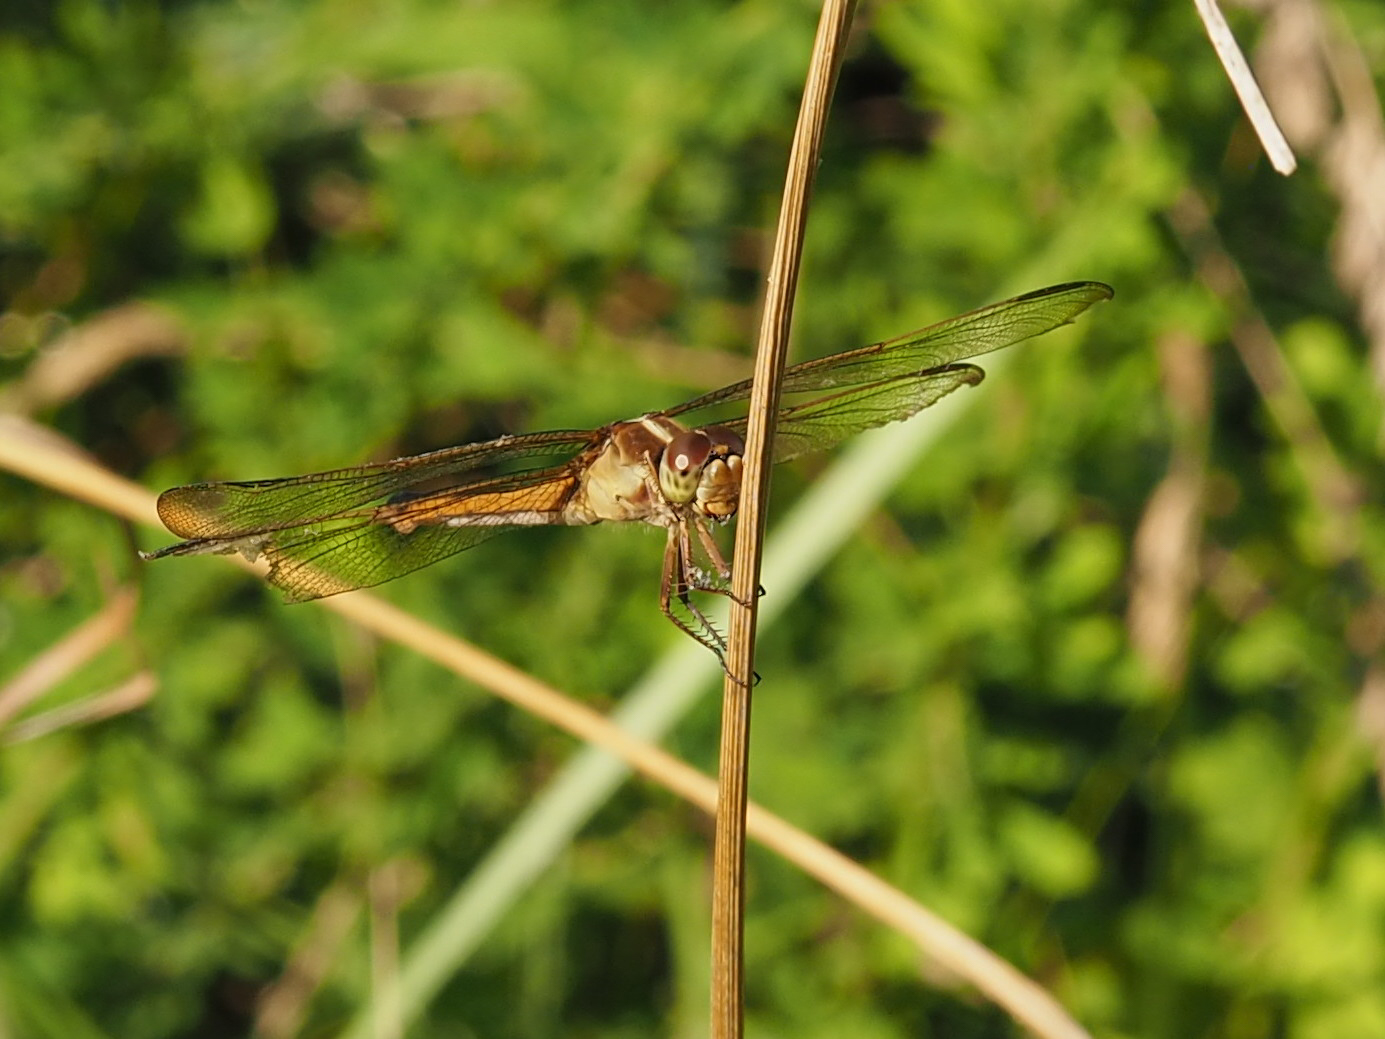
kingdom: Animalia
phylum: Arthropoda
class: Insecta
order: Odonata
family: Libellulidae
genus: Libellula
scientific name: Libellula needhami
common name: Needham's skimmer
